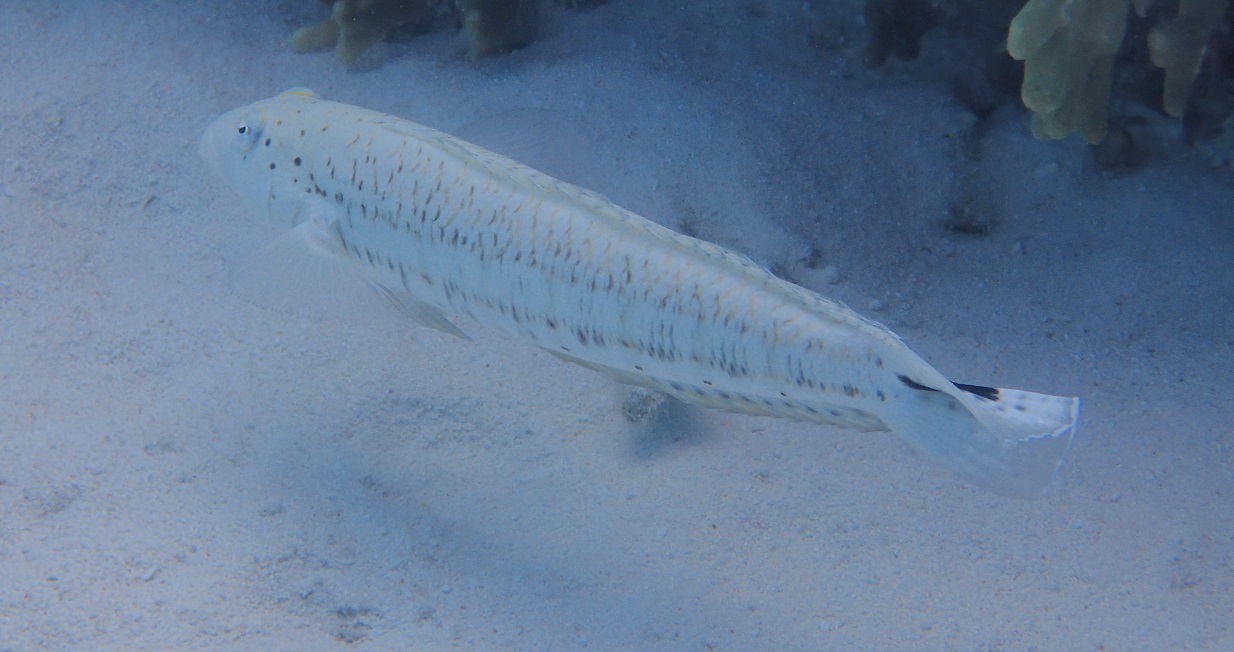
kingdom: Animalia
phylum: Chordata
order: Perciformes
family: Pinguipedidae
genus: Parapercis
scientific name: Parapercis queenslandica
